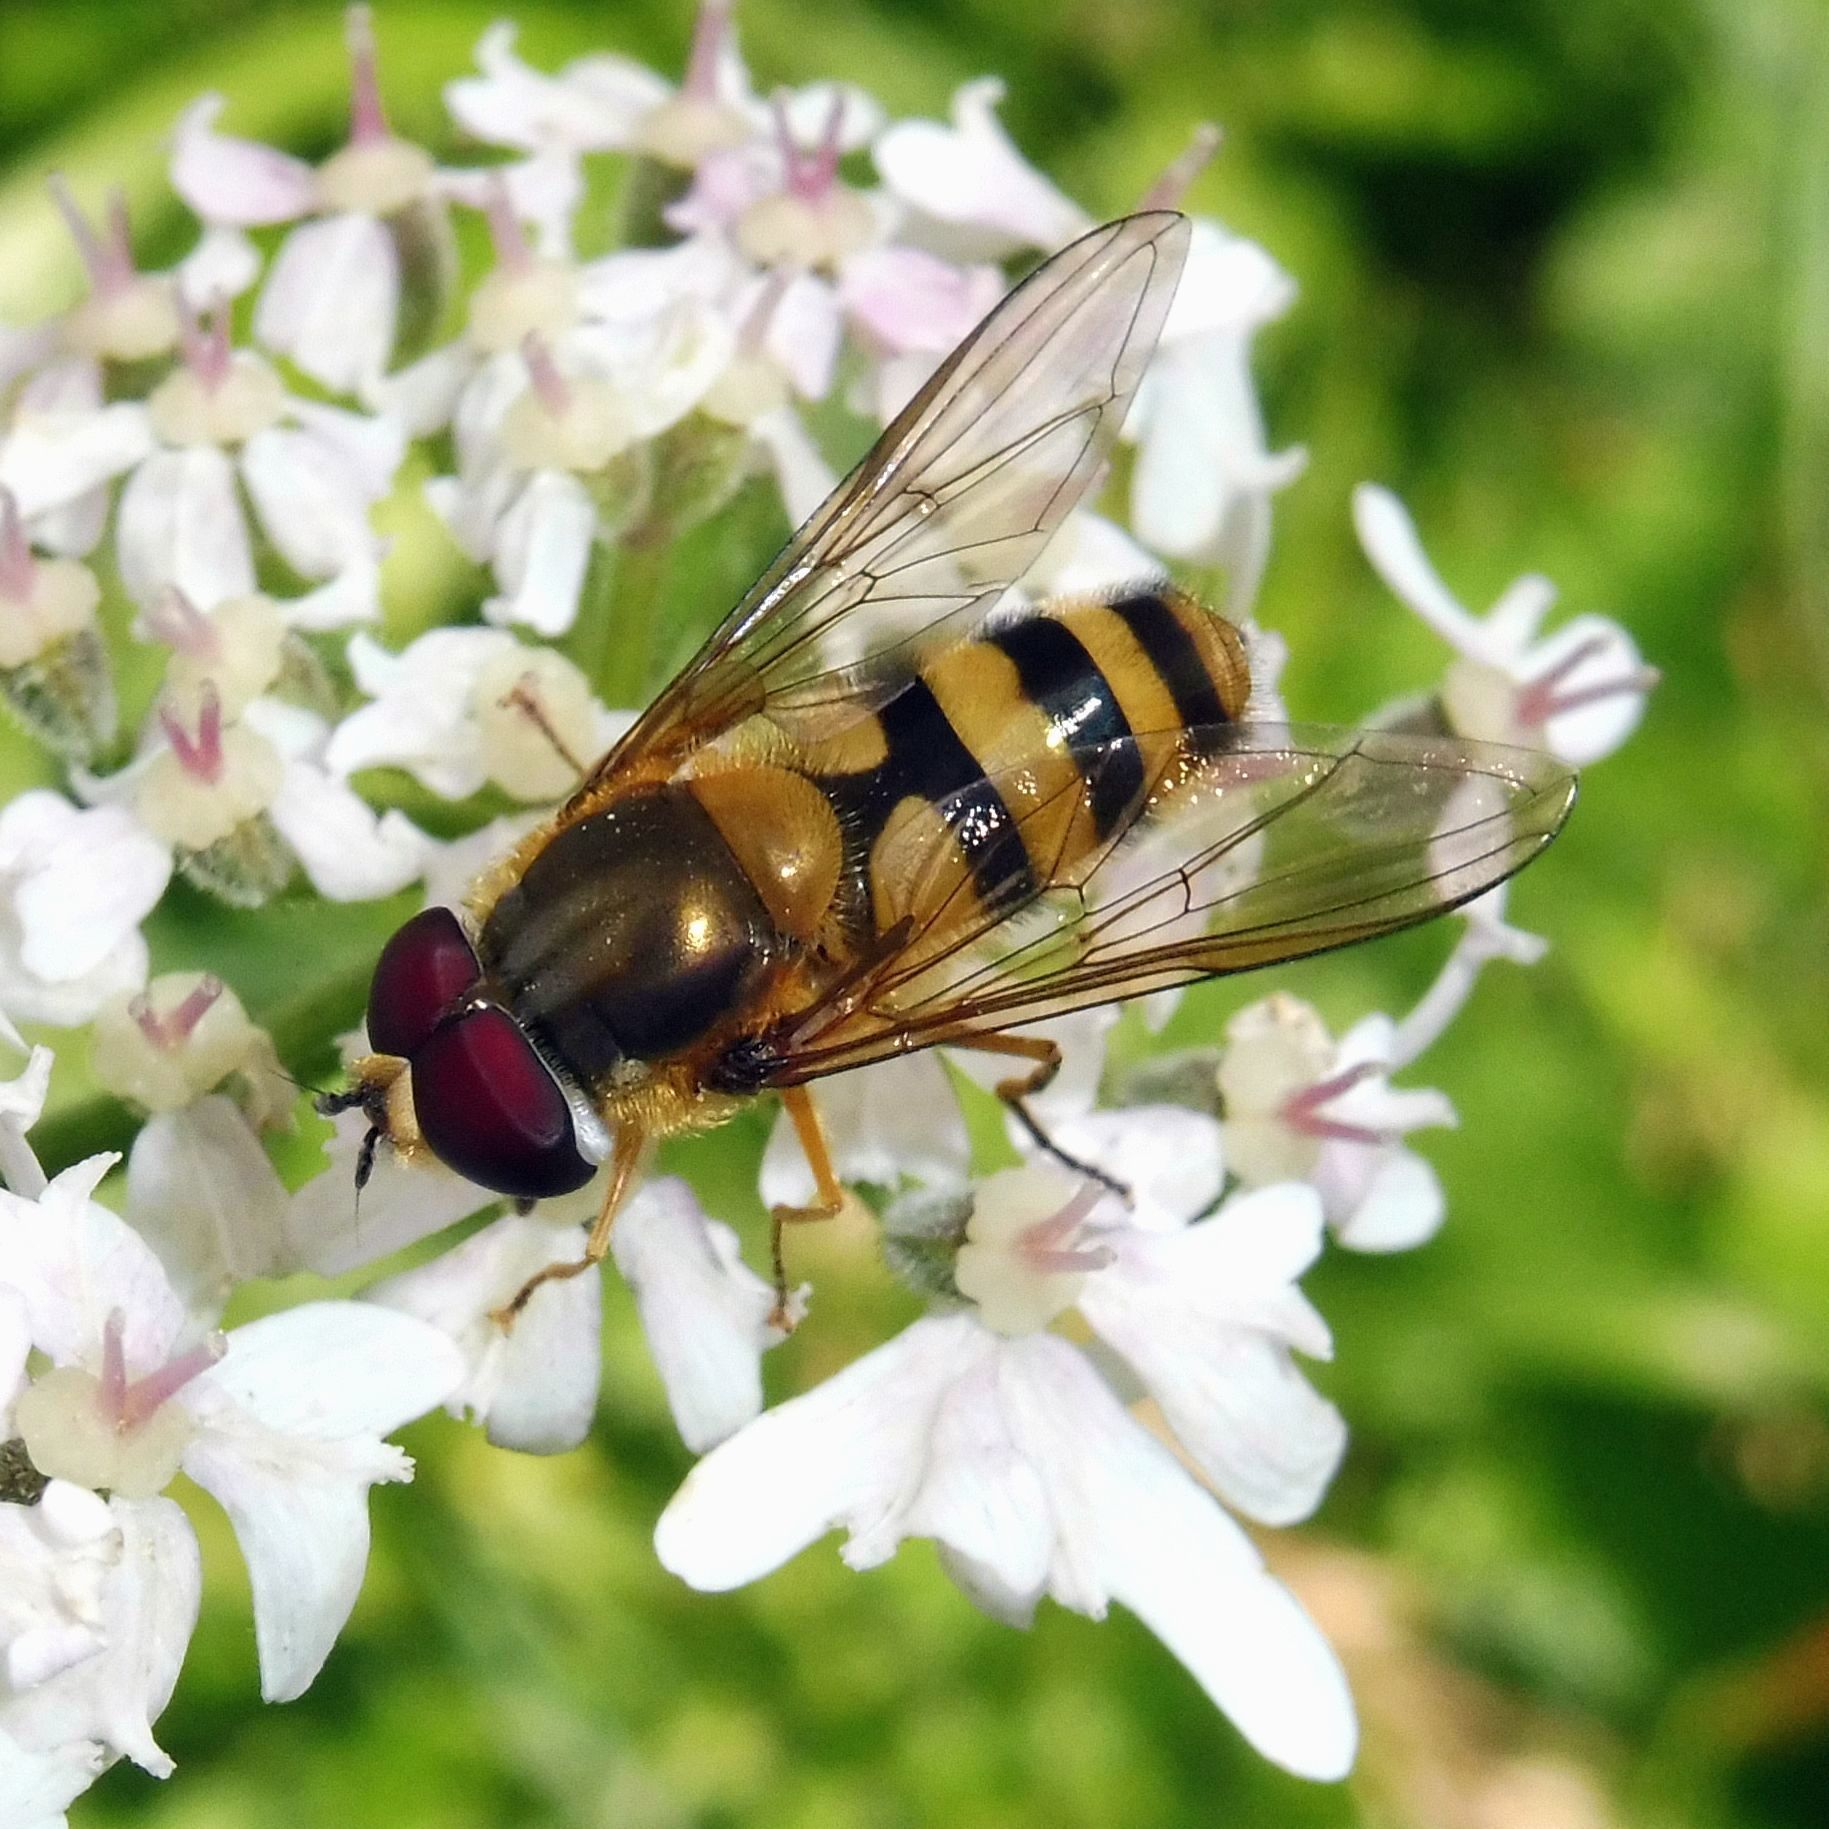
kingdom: Animalia
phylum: Arthropoda
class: Insecta
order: Diptera
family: Syrphidae
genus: Epistrophe
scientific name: Epistrophe grossulariae
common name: Black-horned smoothtail
